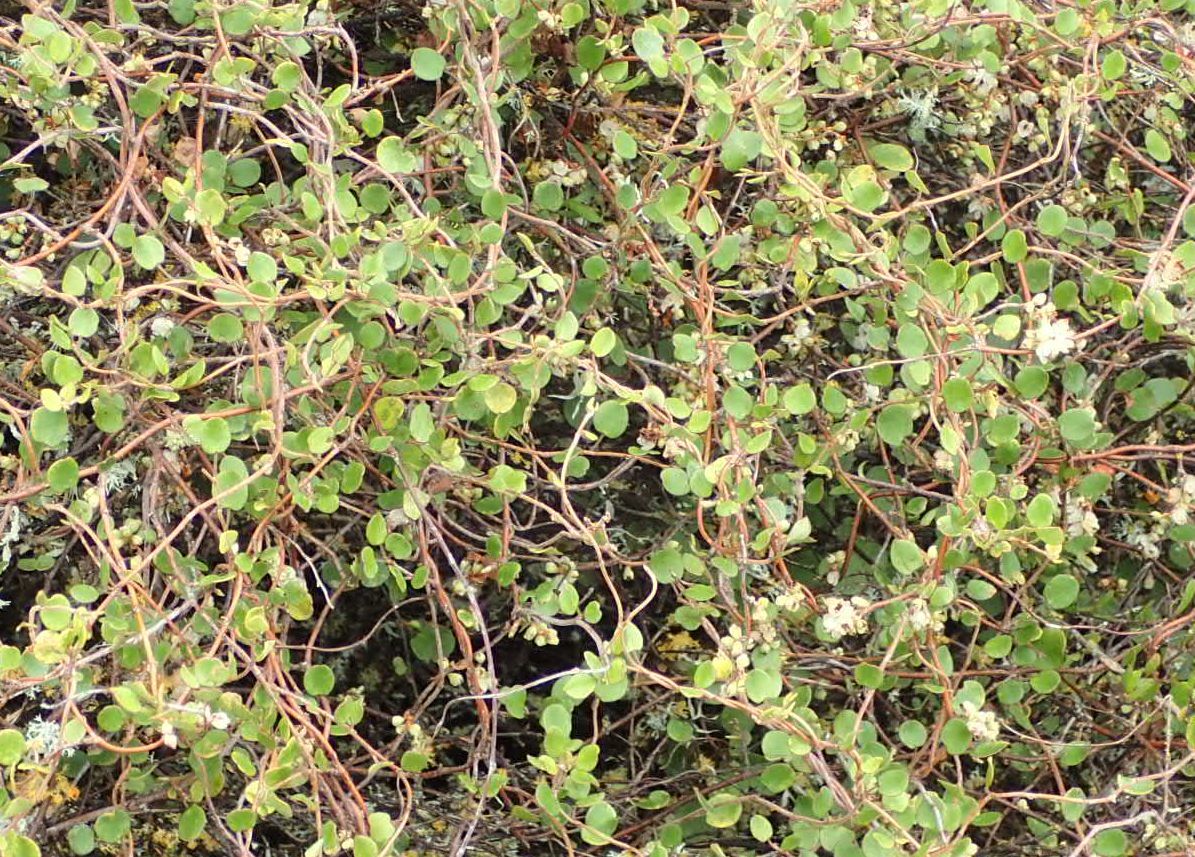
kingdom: Plantae
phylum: Tracheophyta
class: Magnoliopsida
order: Caryophyllales
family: Polygonaceae
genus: Muehlenbeckia
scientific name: Muehlenbeckia complexa
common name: Wireplant
